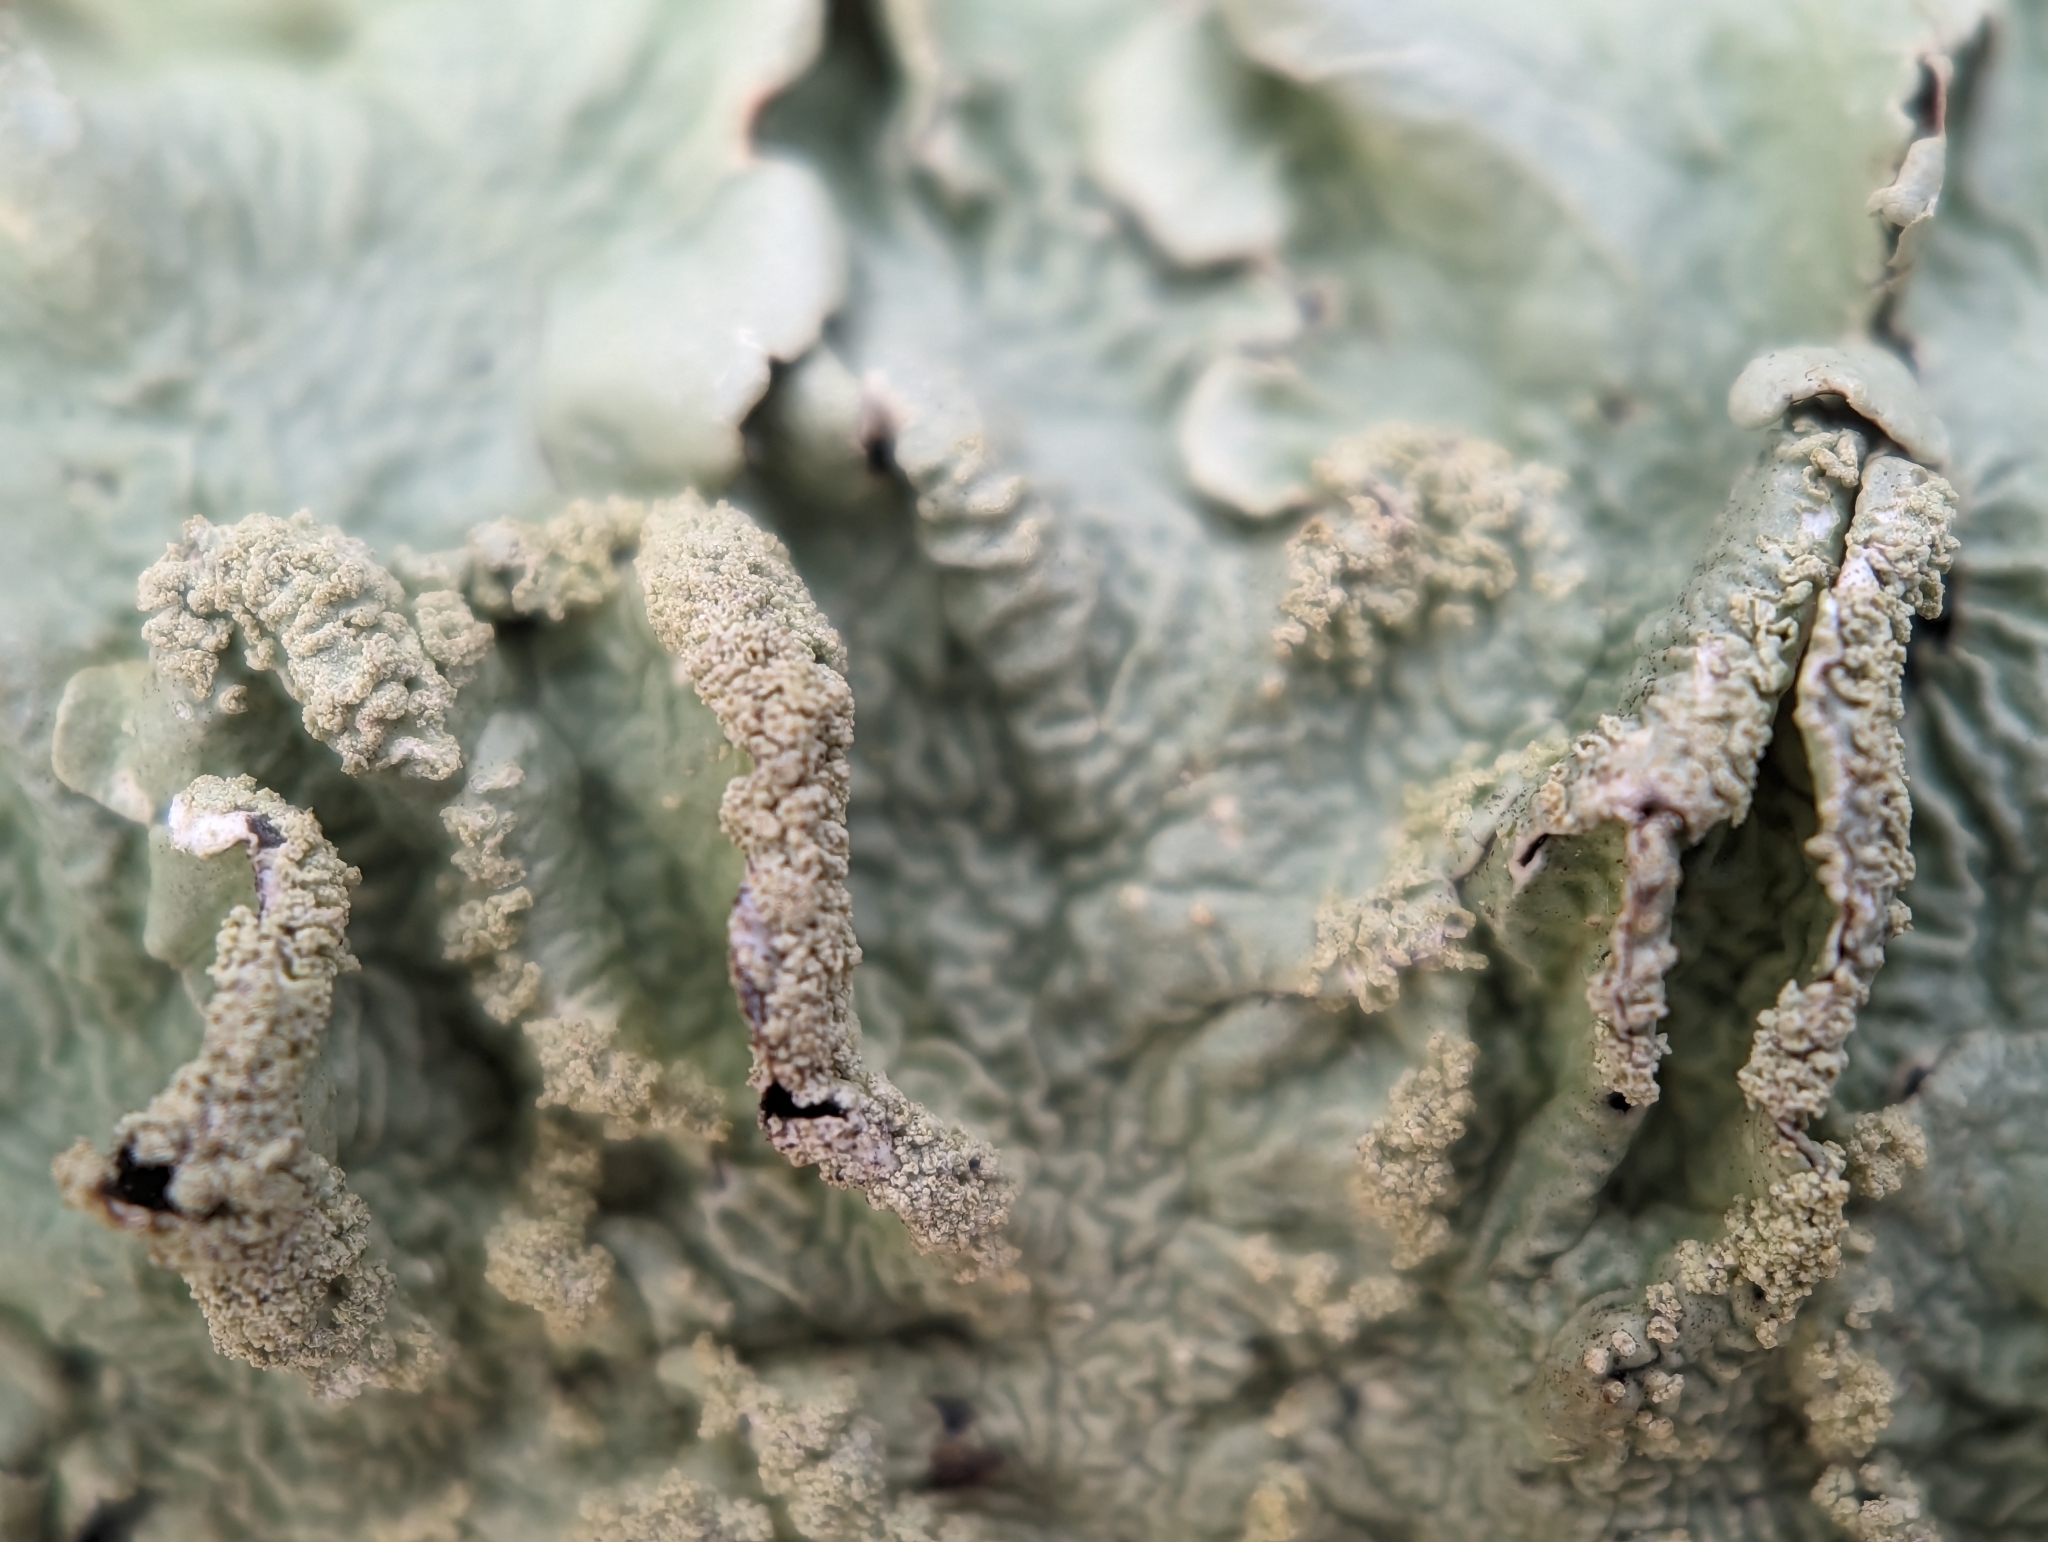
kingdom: Fungi
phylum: Ascomycota
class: Lecanoromycetes
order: Lecanorales
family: Parmeliaceae
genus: Flavoparmelia
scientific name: Flavoparmelia caperata
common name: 40-mile per hour lichen
